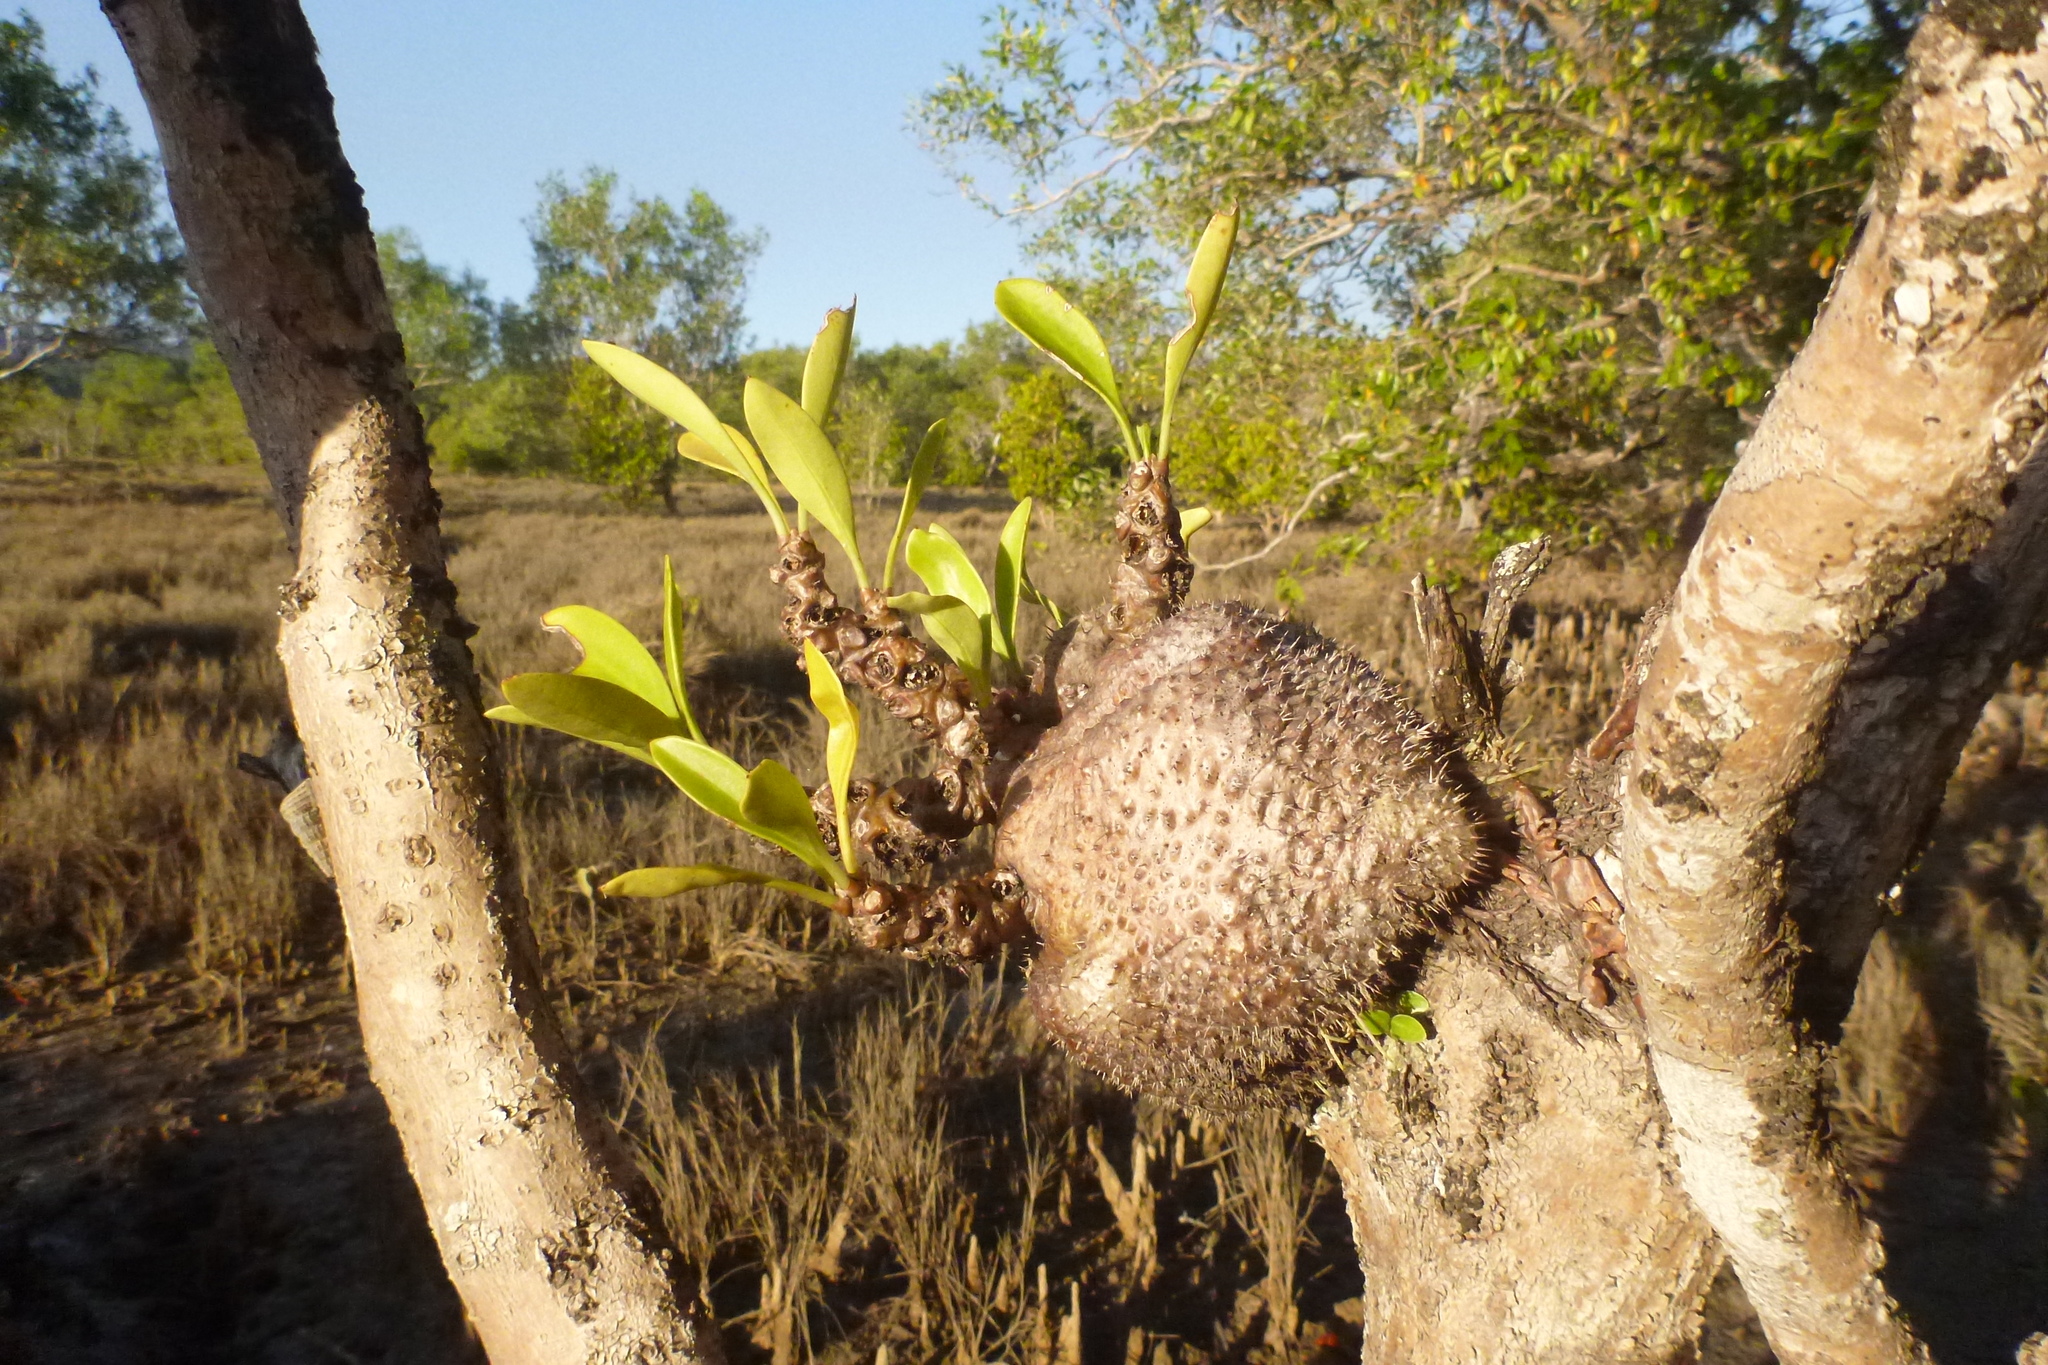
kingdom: Plantae
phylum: Tracheophyta
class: Magnoliopsida
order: Gentianales
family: Rubiaceae
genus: Myrmecodia
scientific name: Myrmecodia beccarii
